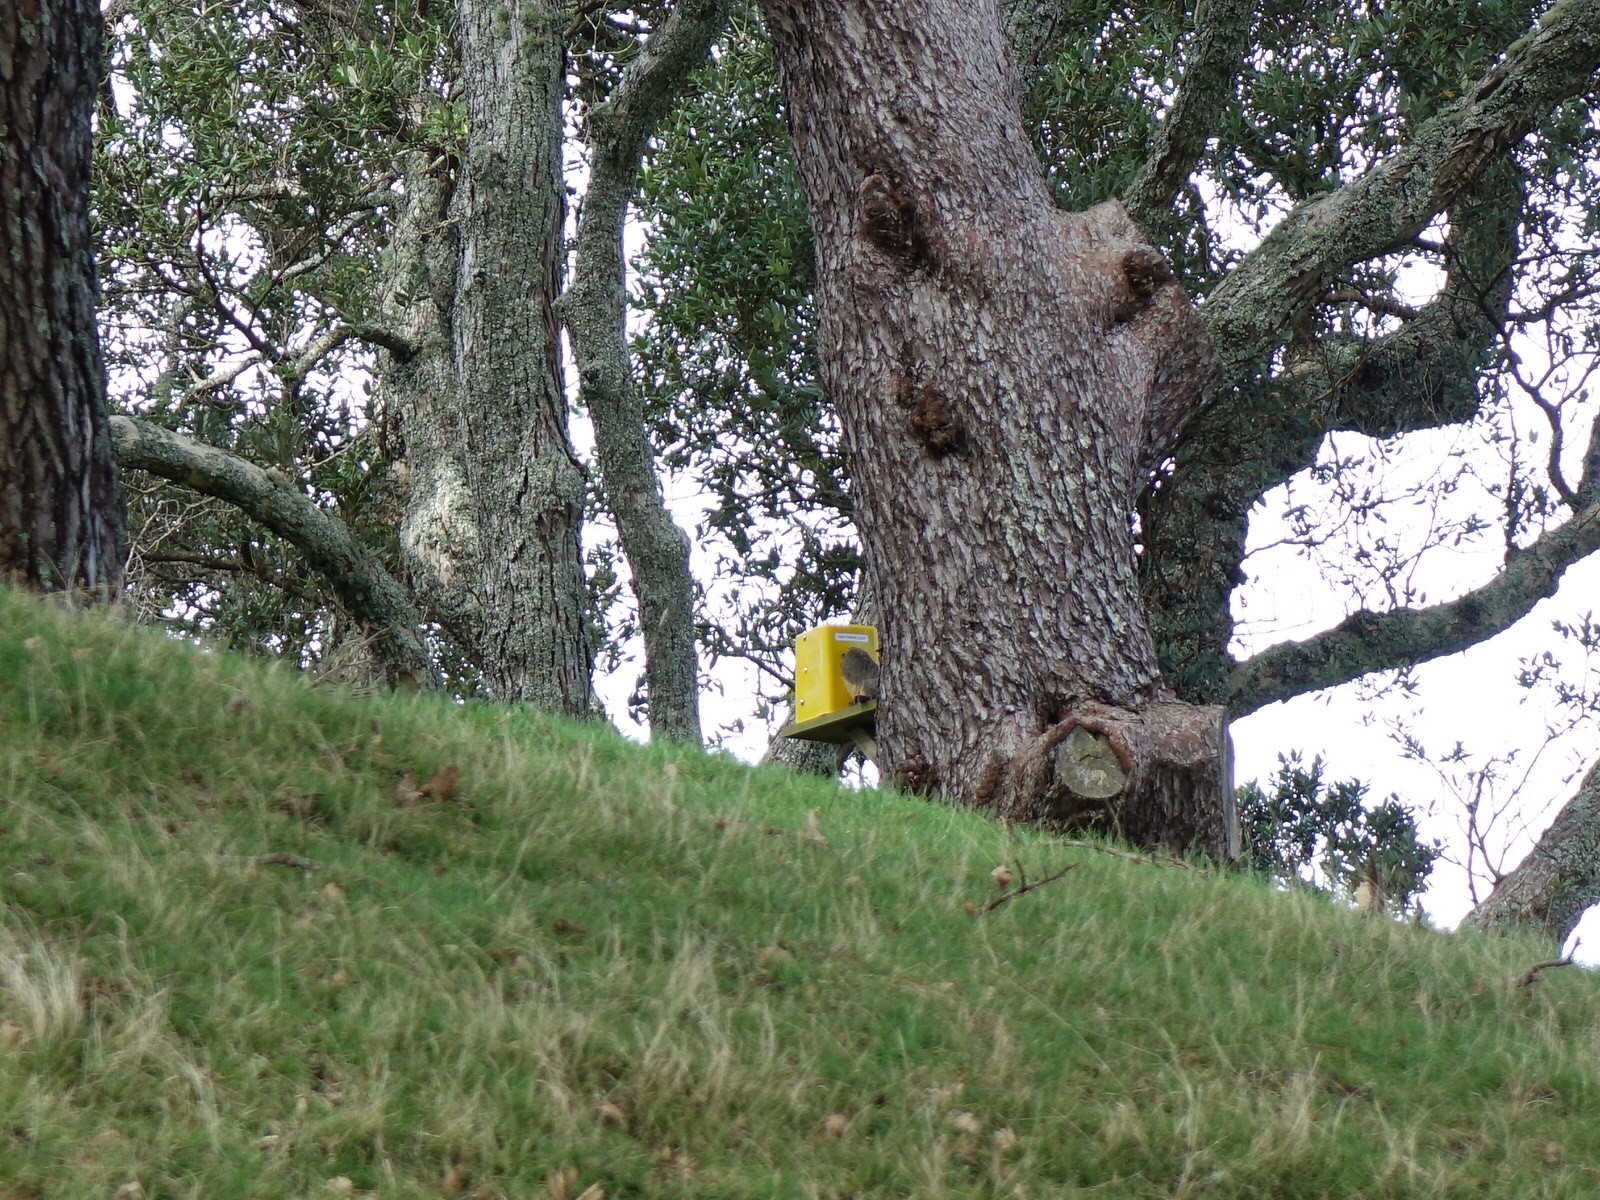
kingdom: Animalia
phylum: Chordata
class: Mammalia
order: Diprotodontia
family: Phalangeridae
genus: Trichosurus
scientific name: Trichosurus vulpecula
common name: Common brushtail
